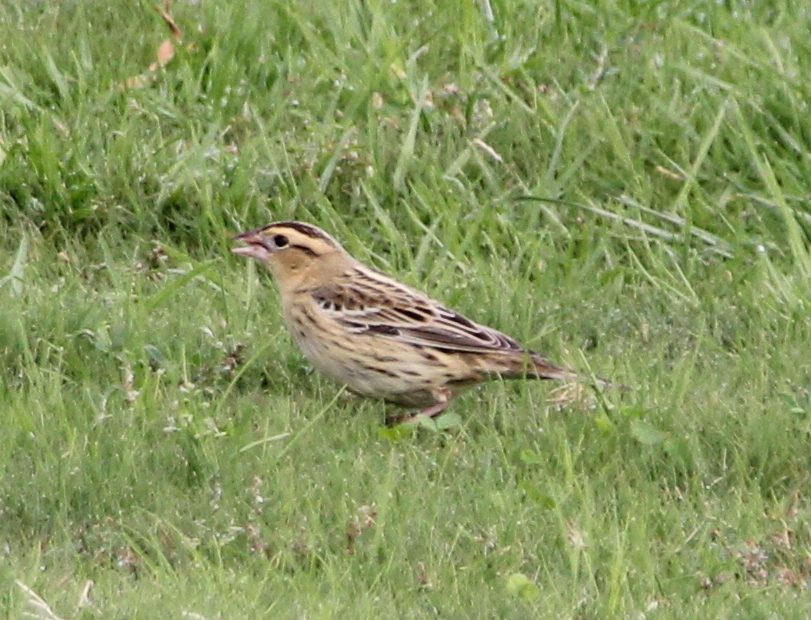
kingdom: Animalia
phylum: Chordata
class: Aves
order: Passeriformes
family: Icteridae
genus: Dolichonyx
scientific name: Dolichonyx oryzivorus
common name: Bobolink
